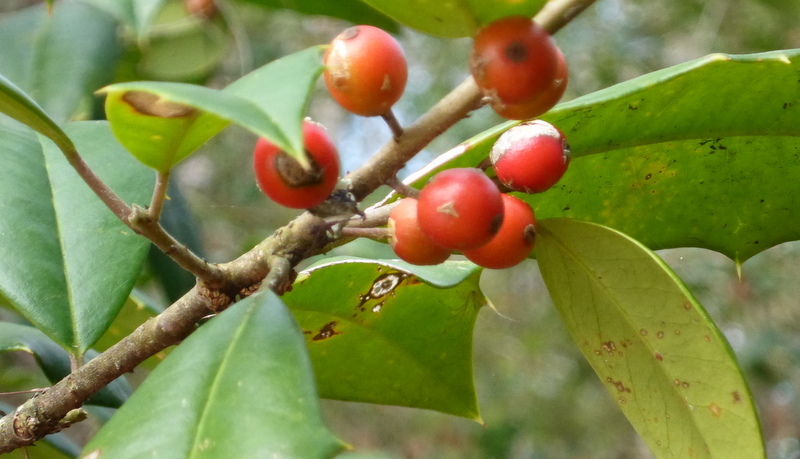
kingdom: Plantae
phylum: Tracheophyta
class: Magnoliopsida
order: Aquifoliales
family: Aquifoliaceae
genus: Ilex
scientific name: Ilex opaca
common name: American holly
